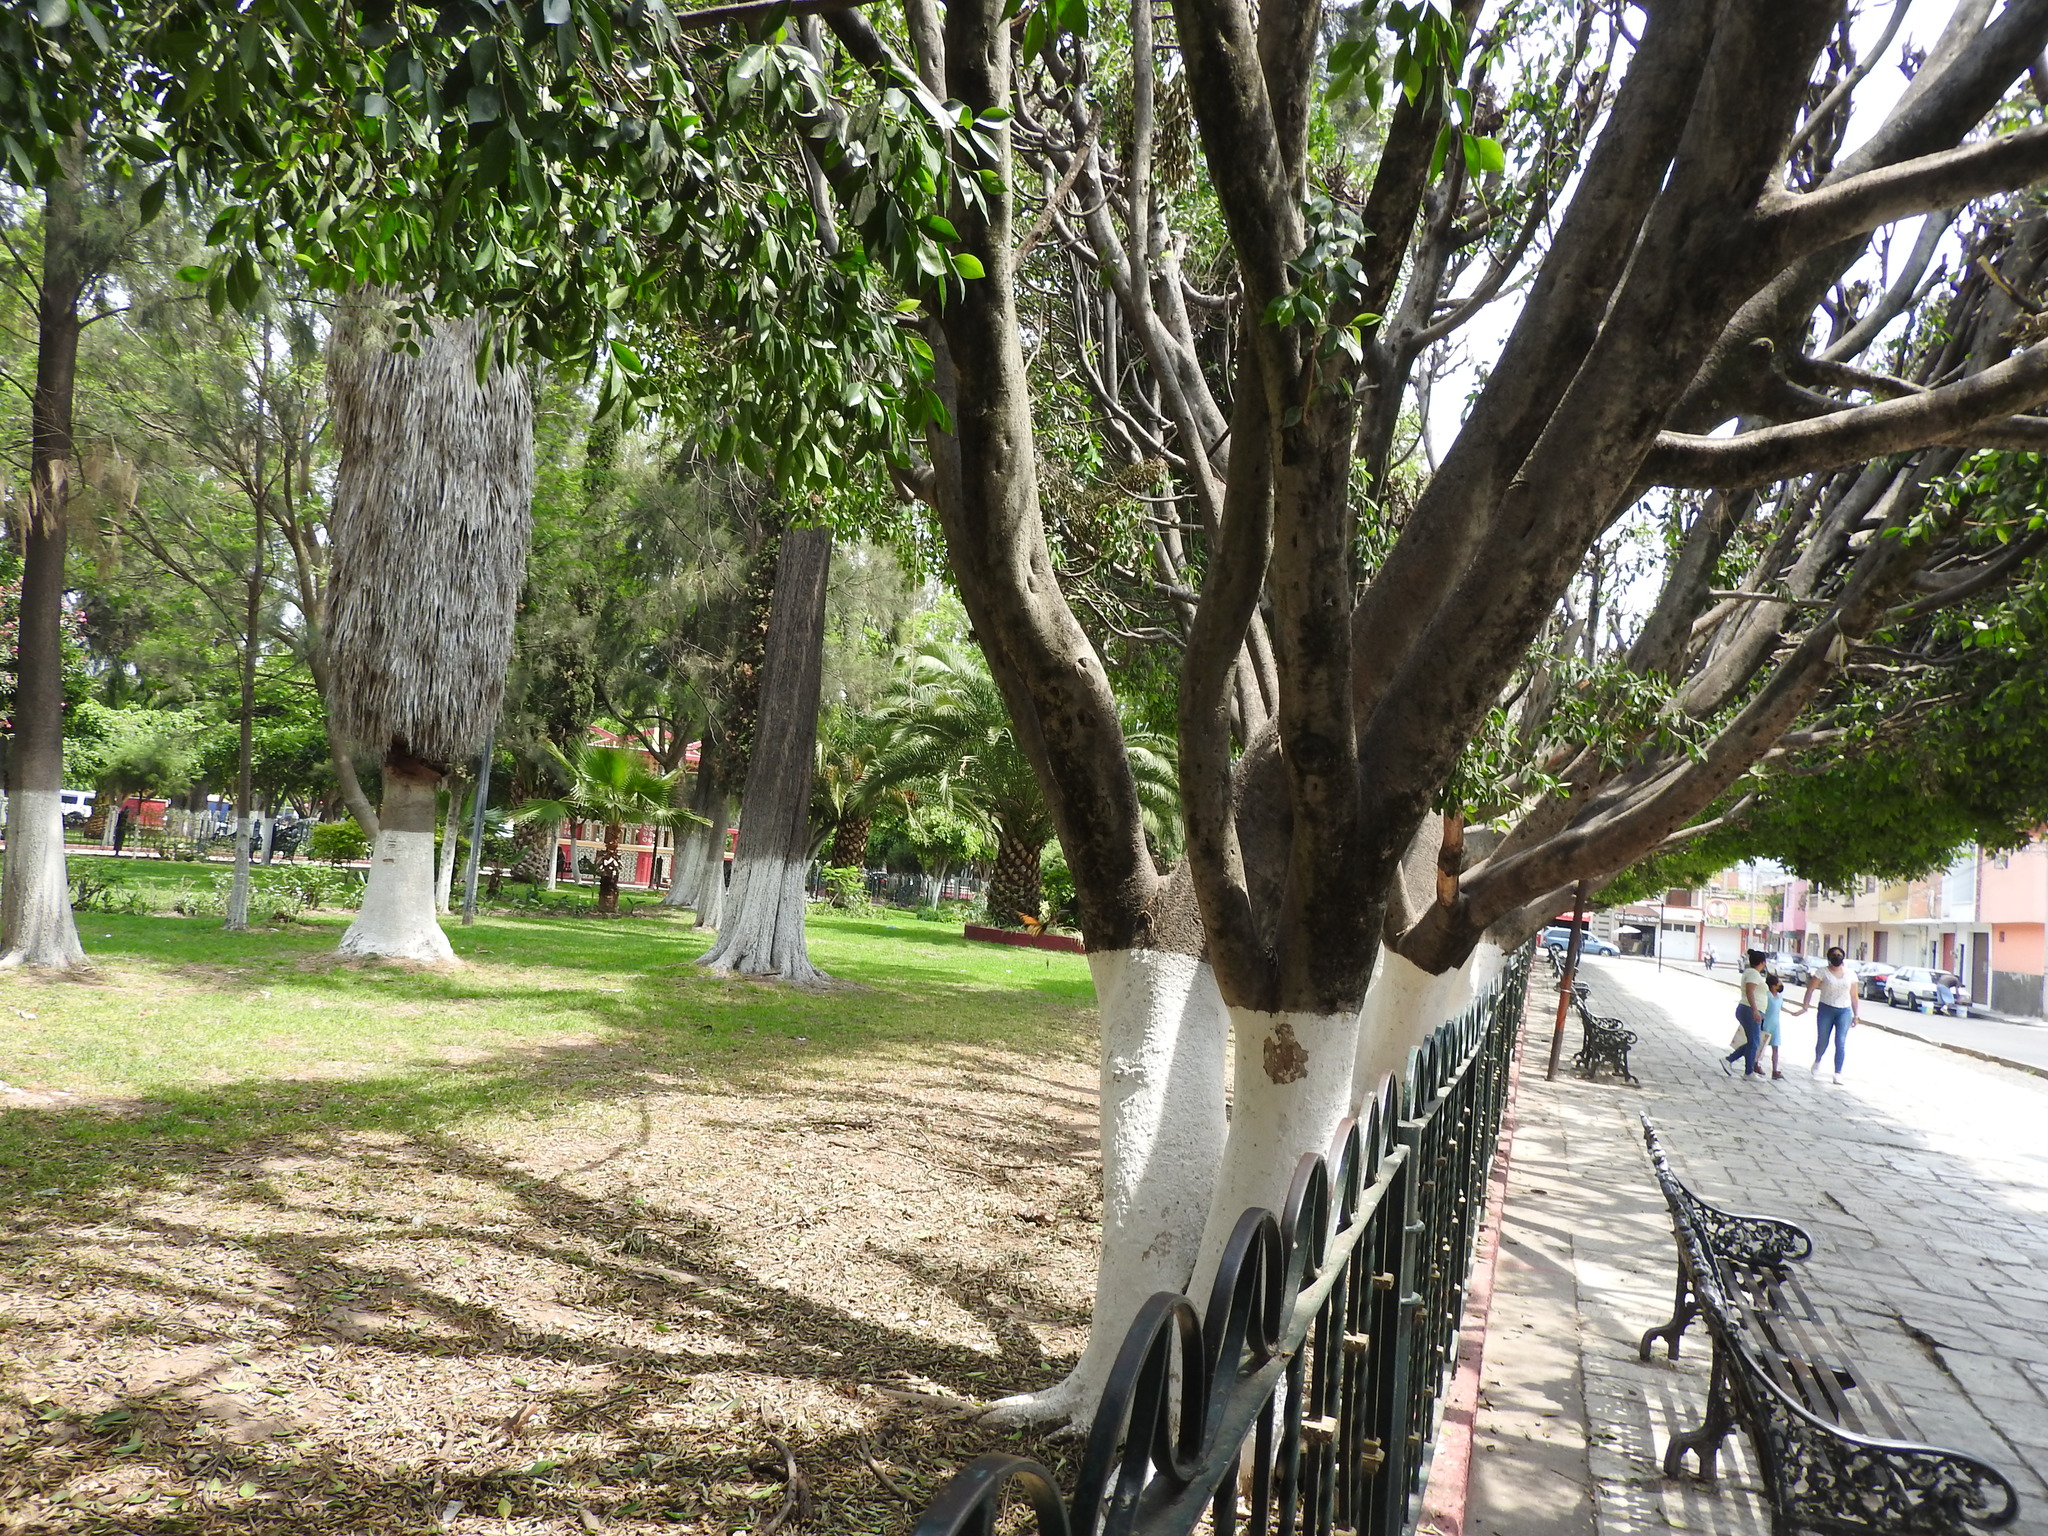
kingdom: Animalia
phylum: Arthropoda
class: Insecta
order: Lepidoptera
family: Nymphalidae
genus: Danaus
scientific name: Danaus plexippus
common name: Monarch
